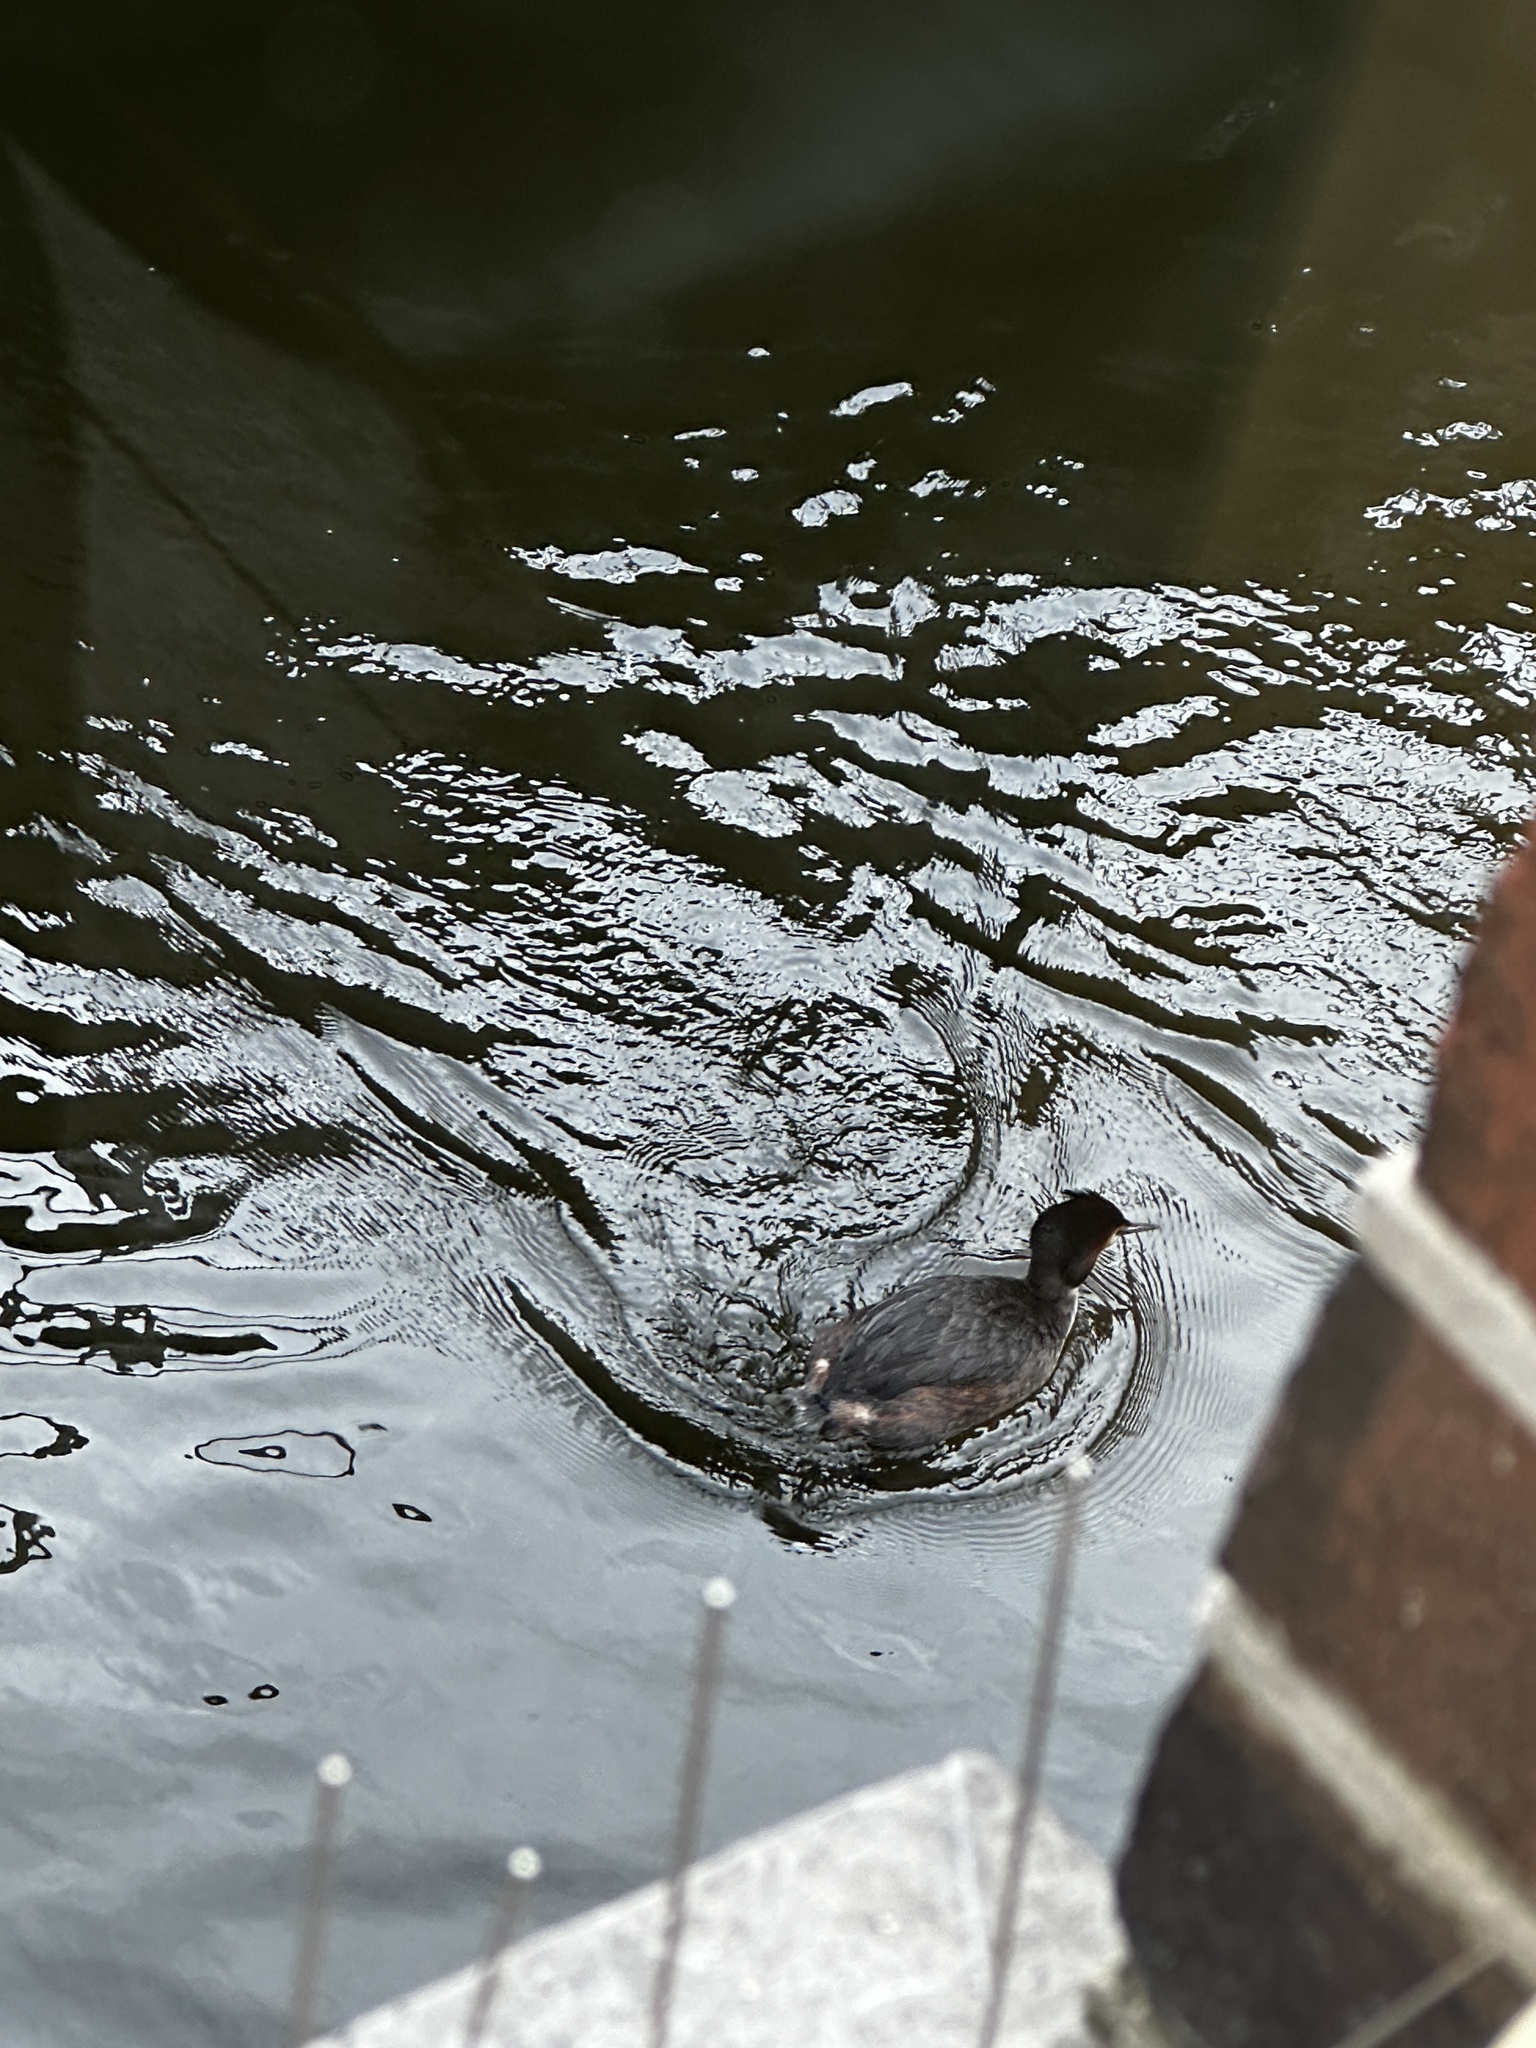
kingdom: Animalia
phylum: Chordata
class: Aves
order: Podicipediformes
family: Podicipedidae
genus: Podiceps
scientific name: Podiceps cristatus
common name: Great crested grebe
